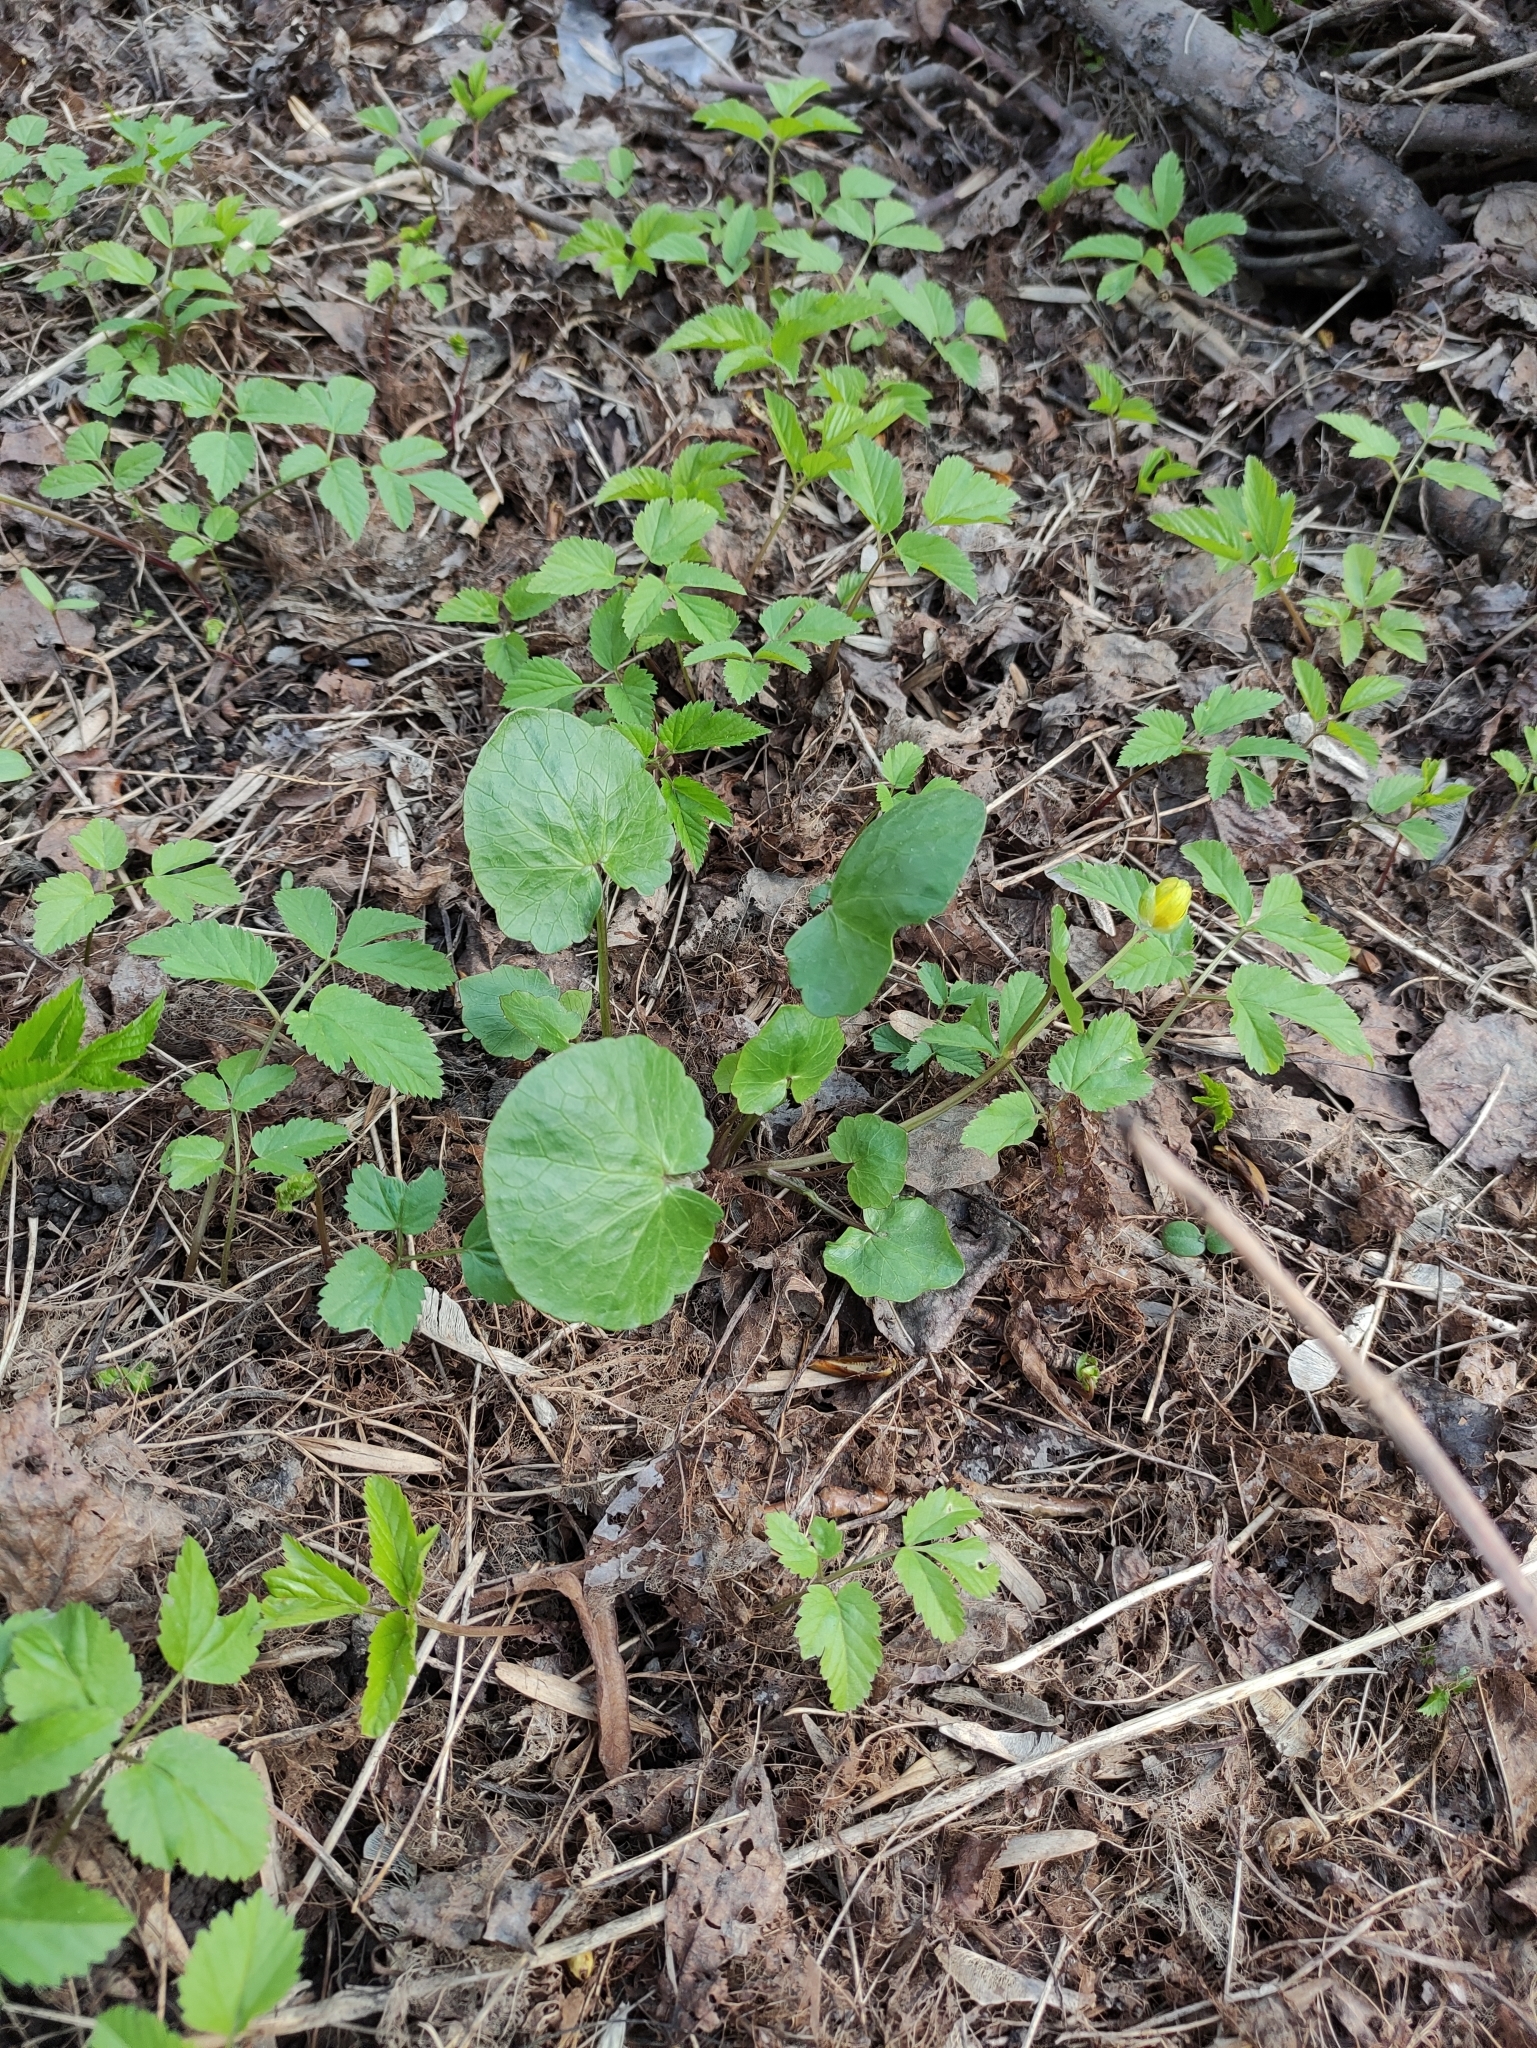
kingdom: Plantae
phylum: Tracheophyta
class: Magnoliopsida
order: Ranunculales
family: Ranunculaceae
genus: Ficaria
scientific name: Ficaria verna
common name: Lesser celandine
